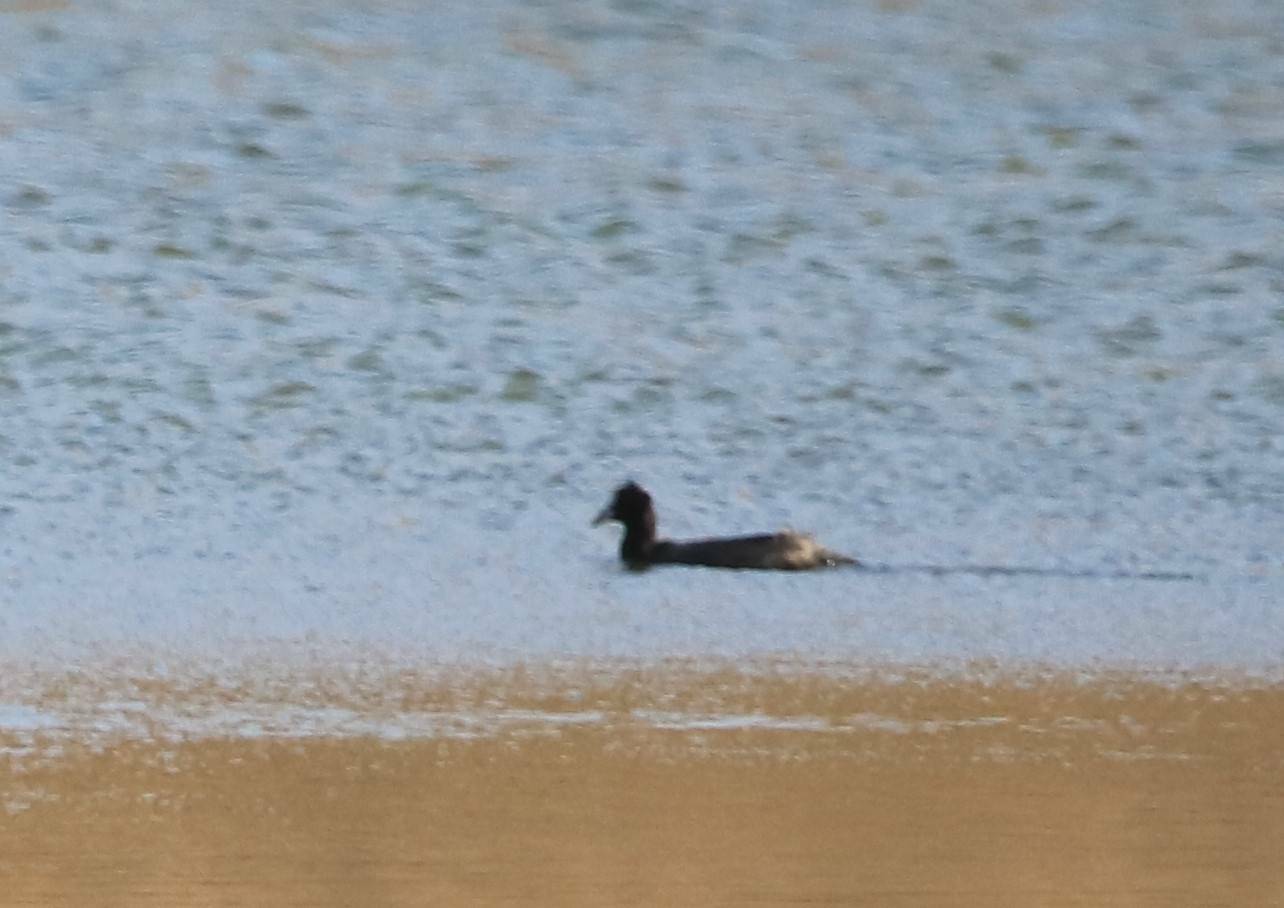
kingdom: Animalia
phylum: Chordata
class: Aves
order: Gruiformes
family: Rallidae
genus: Fulica
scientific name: Fulica atra
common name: Eurasian coot
